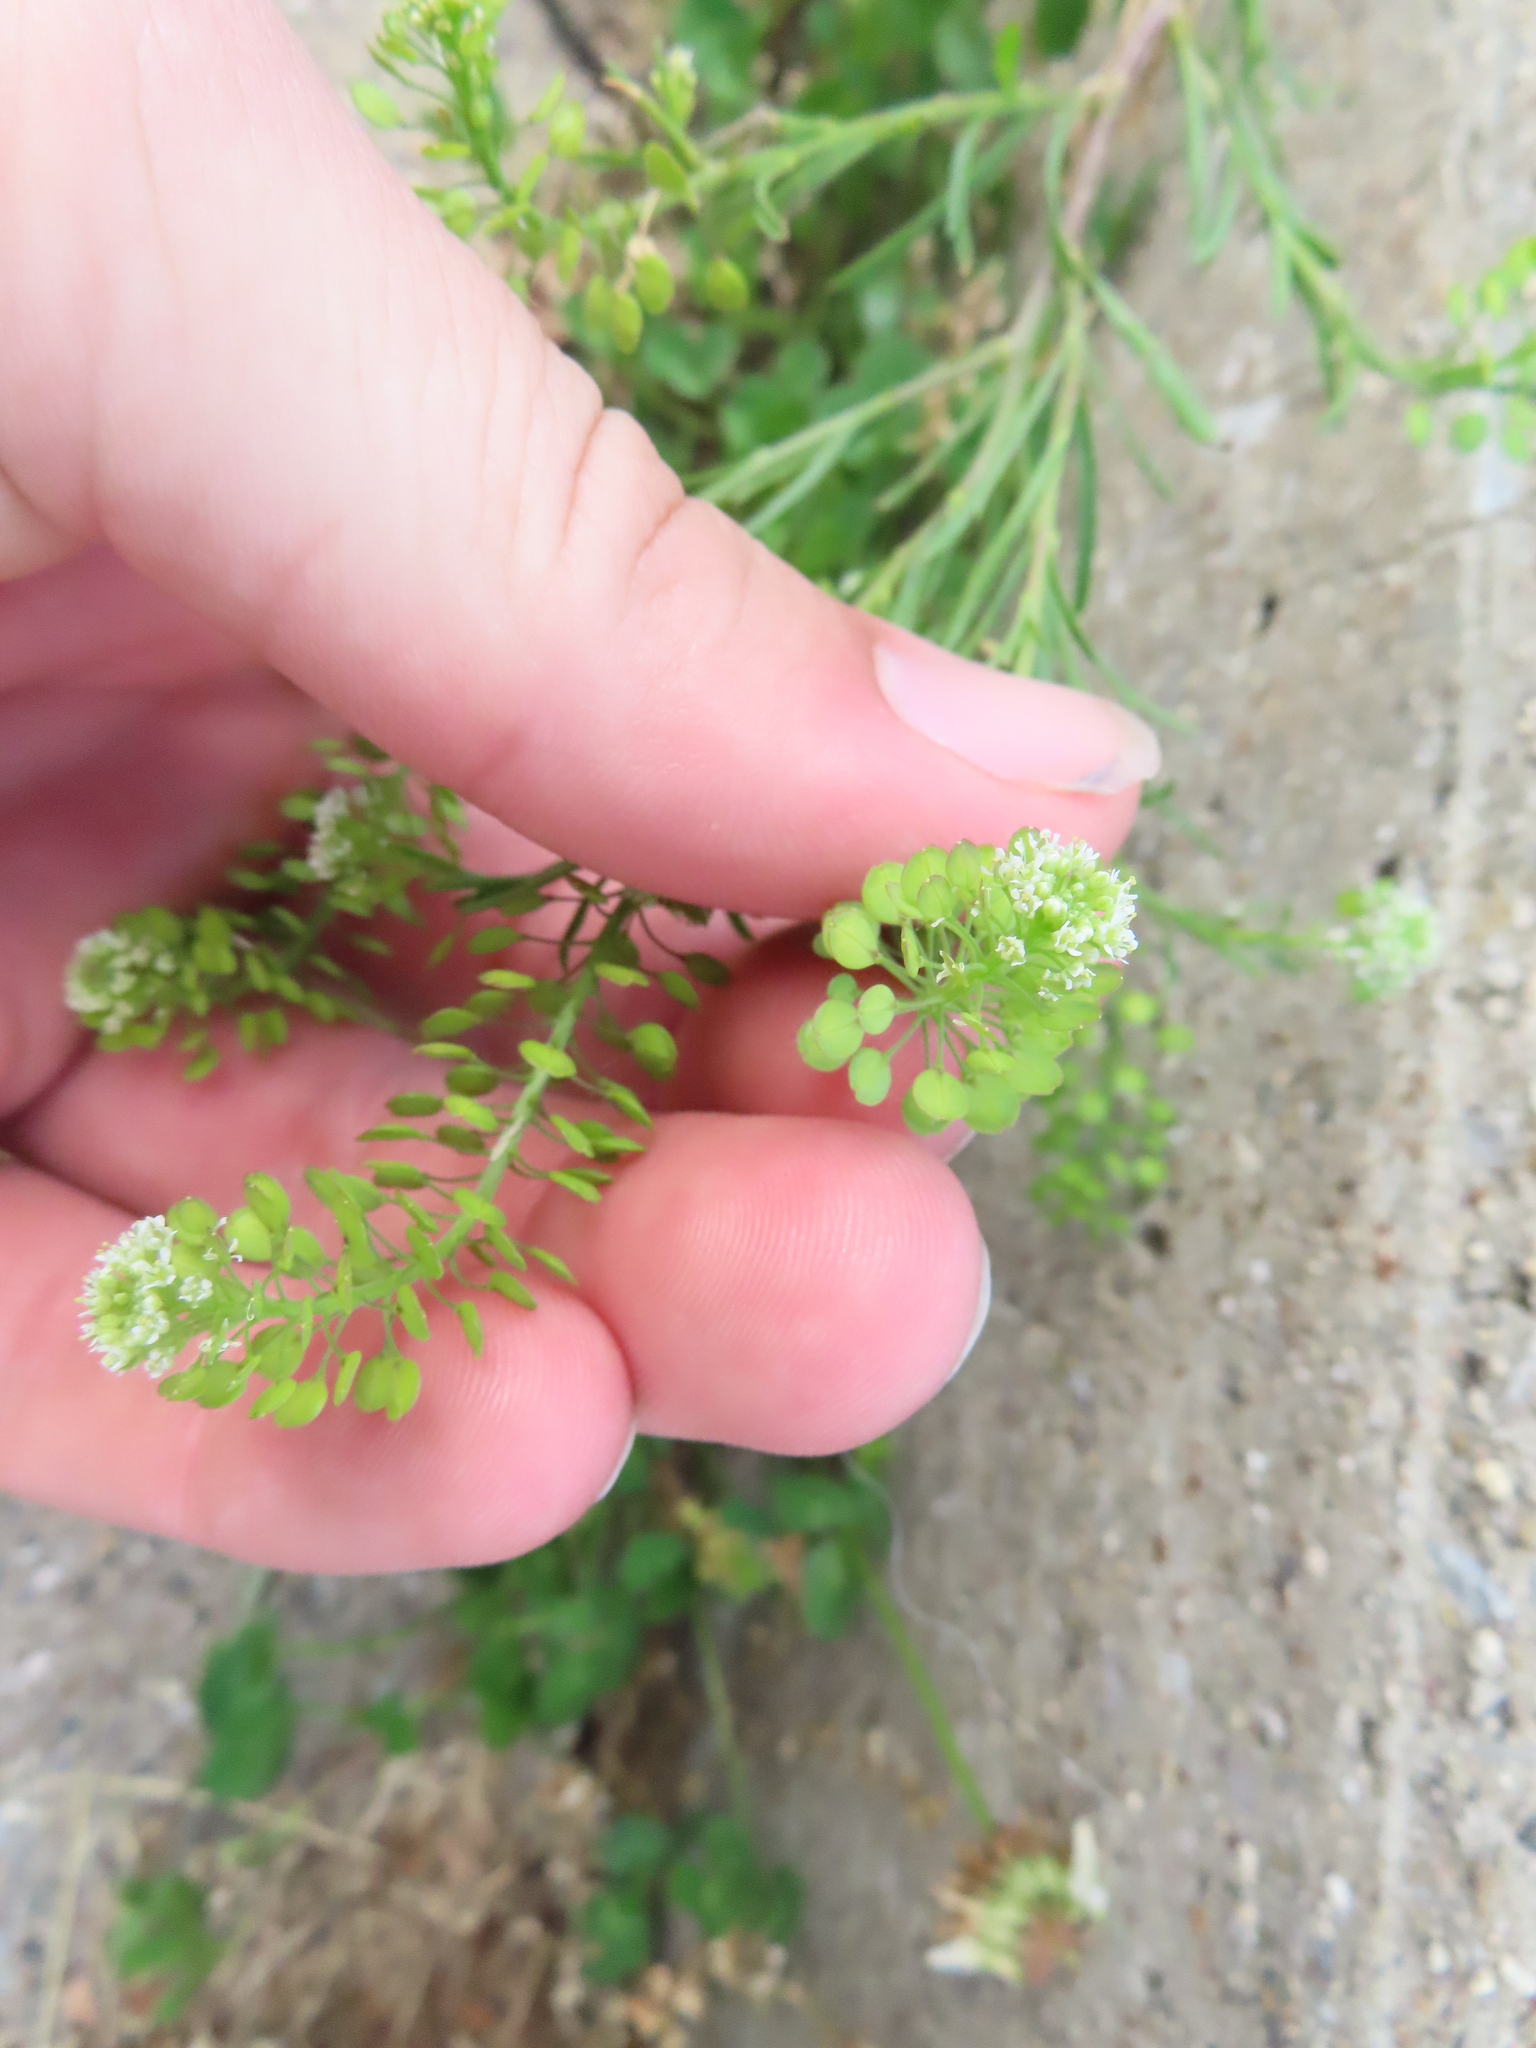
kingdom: Plantae
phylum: Tracheophyta
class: Magnoliopsida
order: Brassicales
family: Brassicaceae
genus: Lepidium
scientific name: Lepidium virginicum
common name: Least pepperwort
